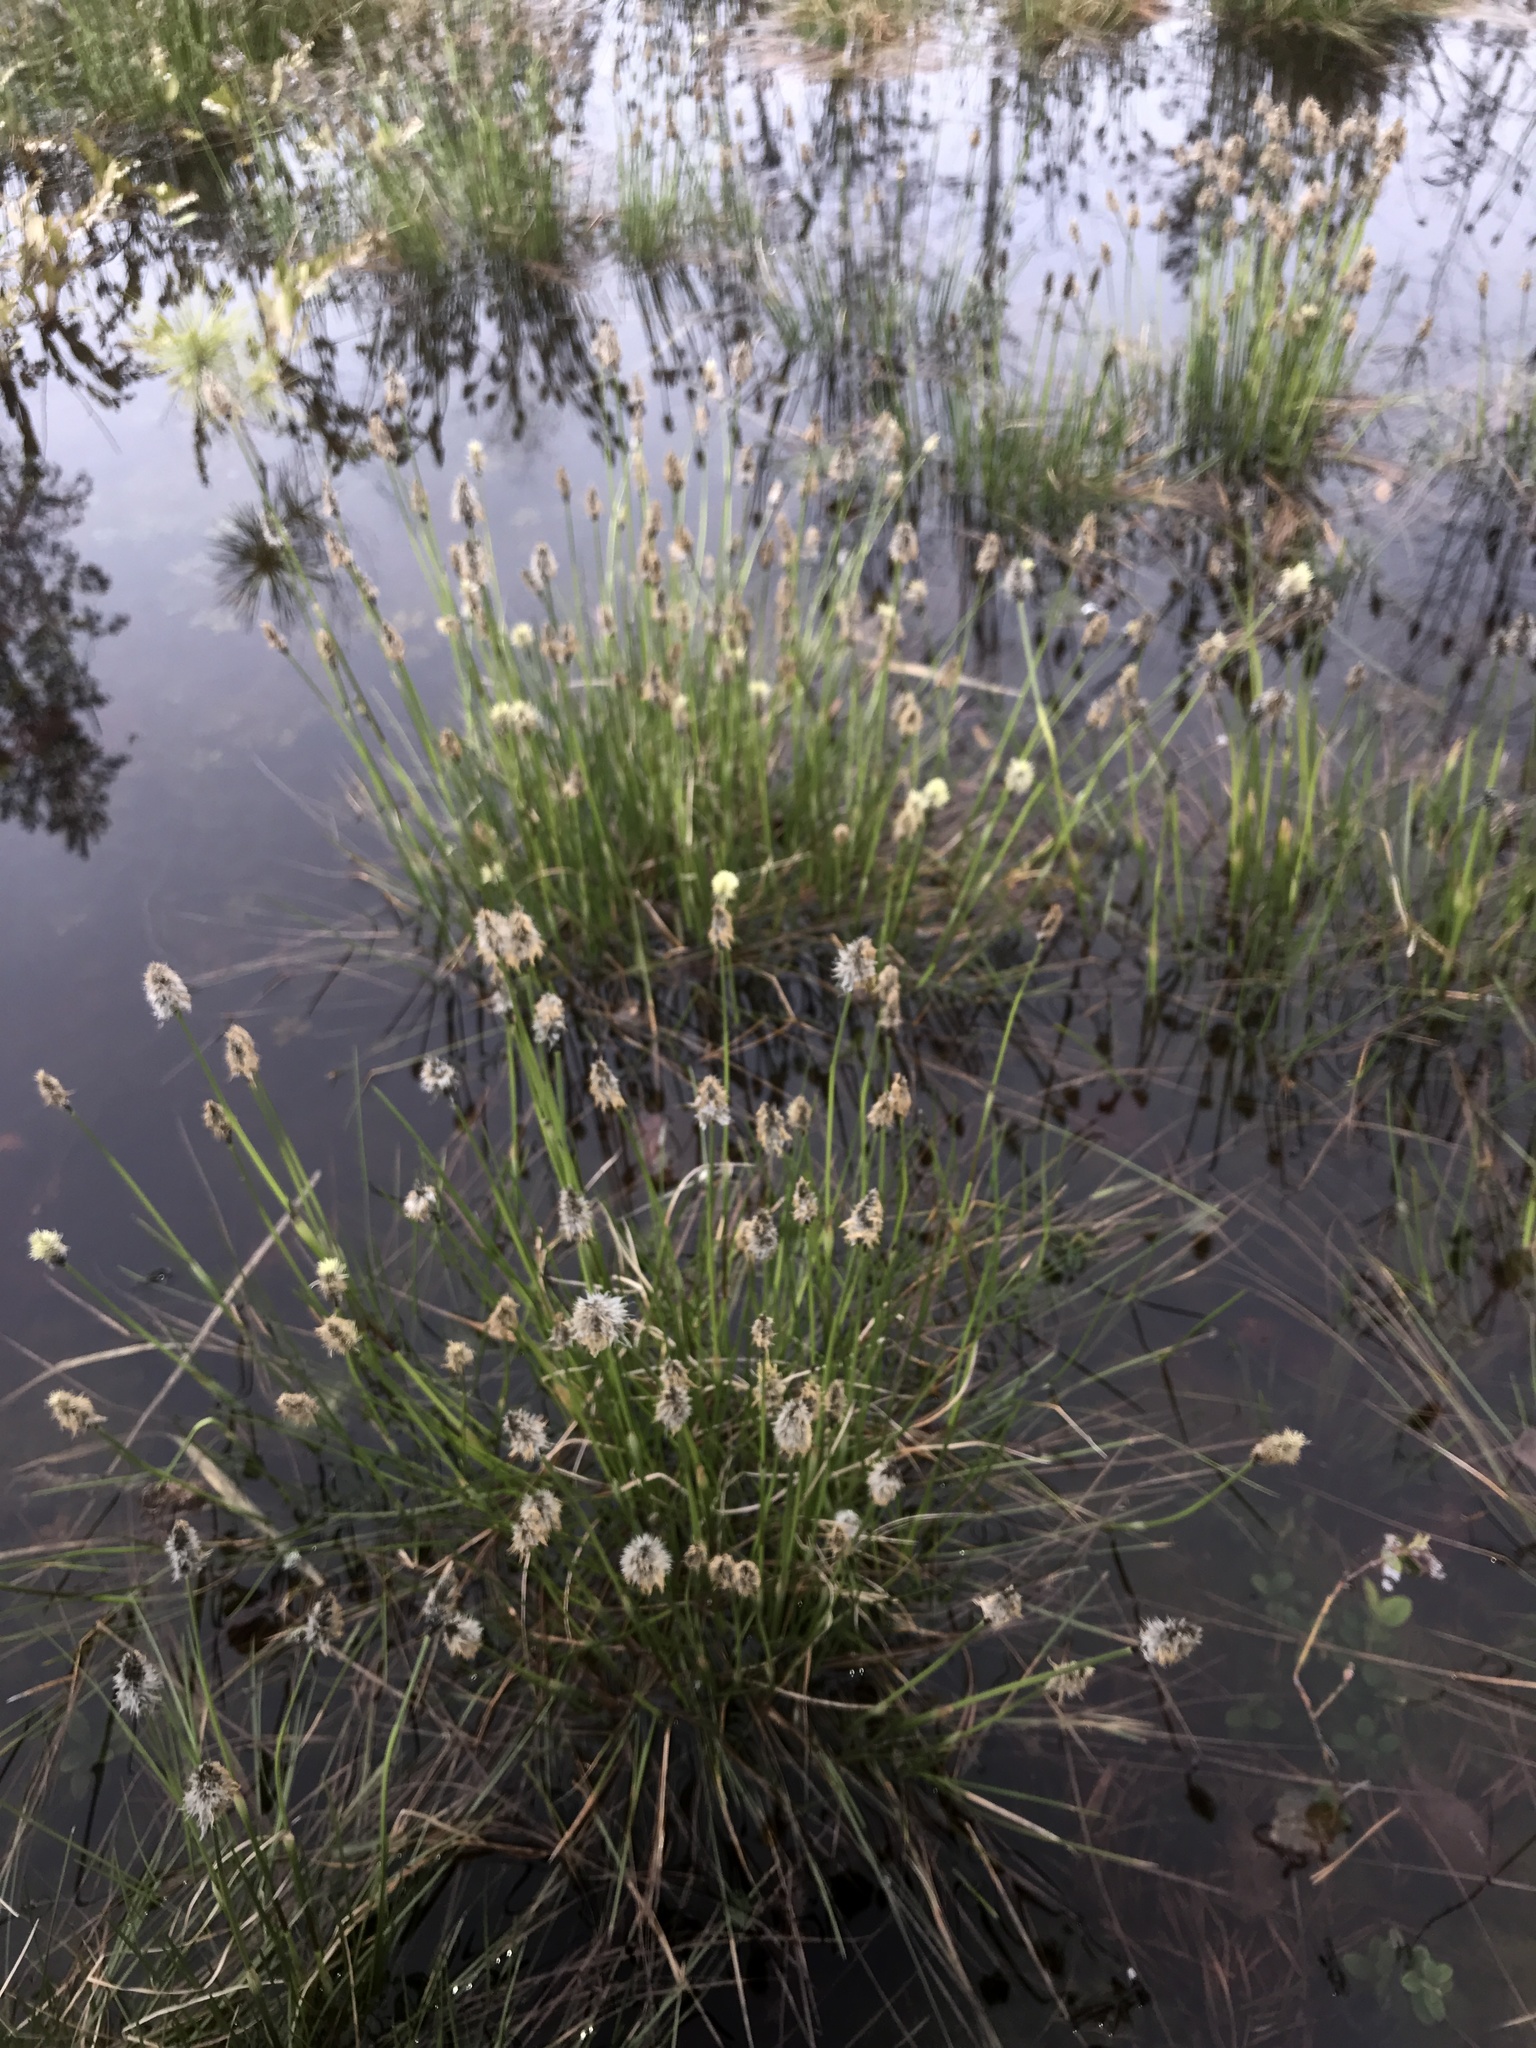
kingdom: Plantae
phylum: Tracheophyta
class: Liliopsida
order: Poales
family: Cyperaceae
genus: Eriophorum
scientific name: Eriophorum vaginatum
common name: Hare's-tail cottongrass
